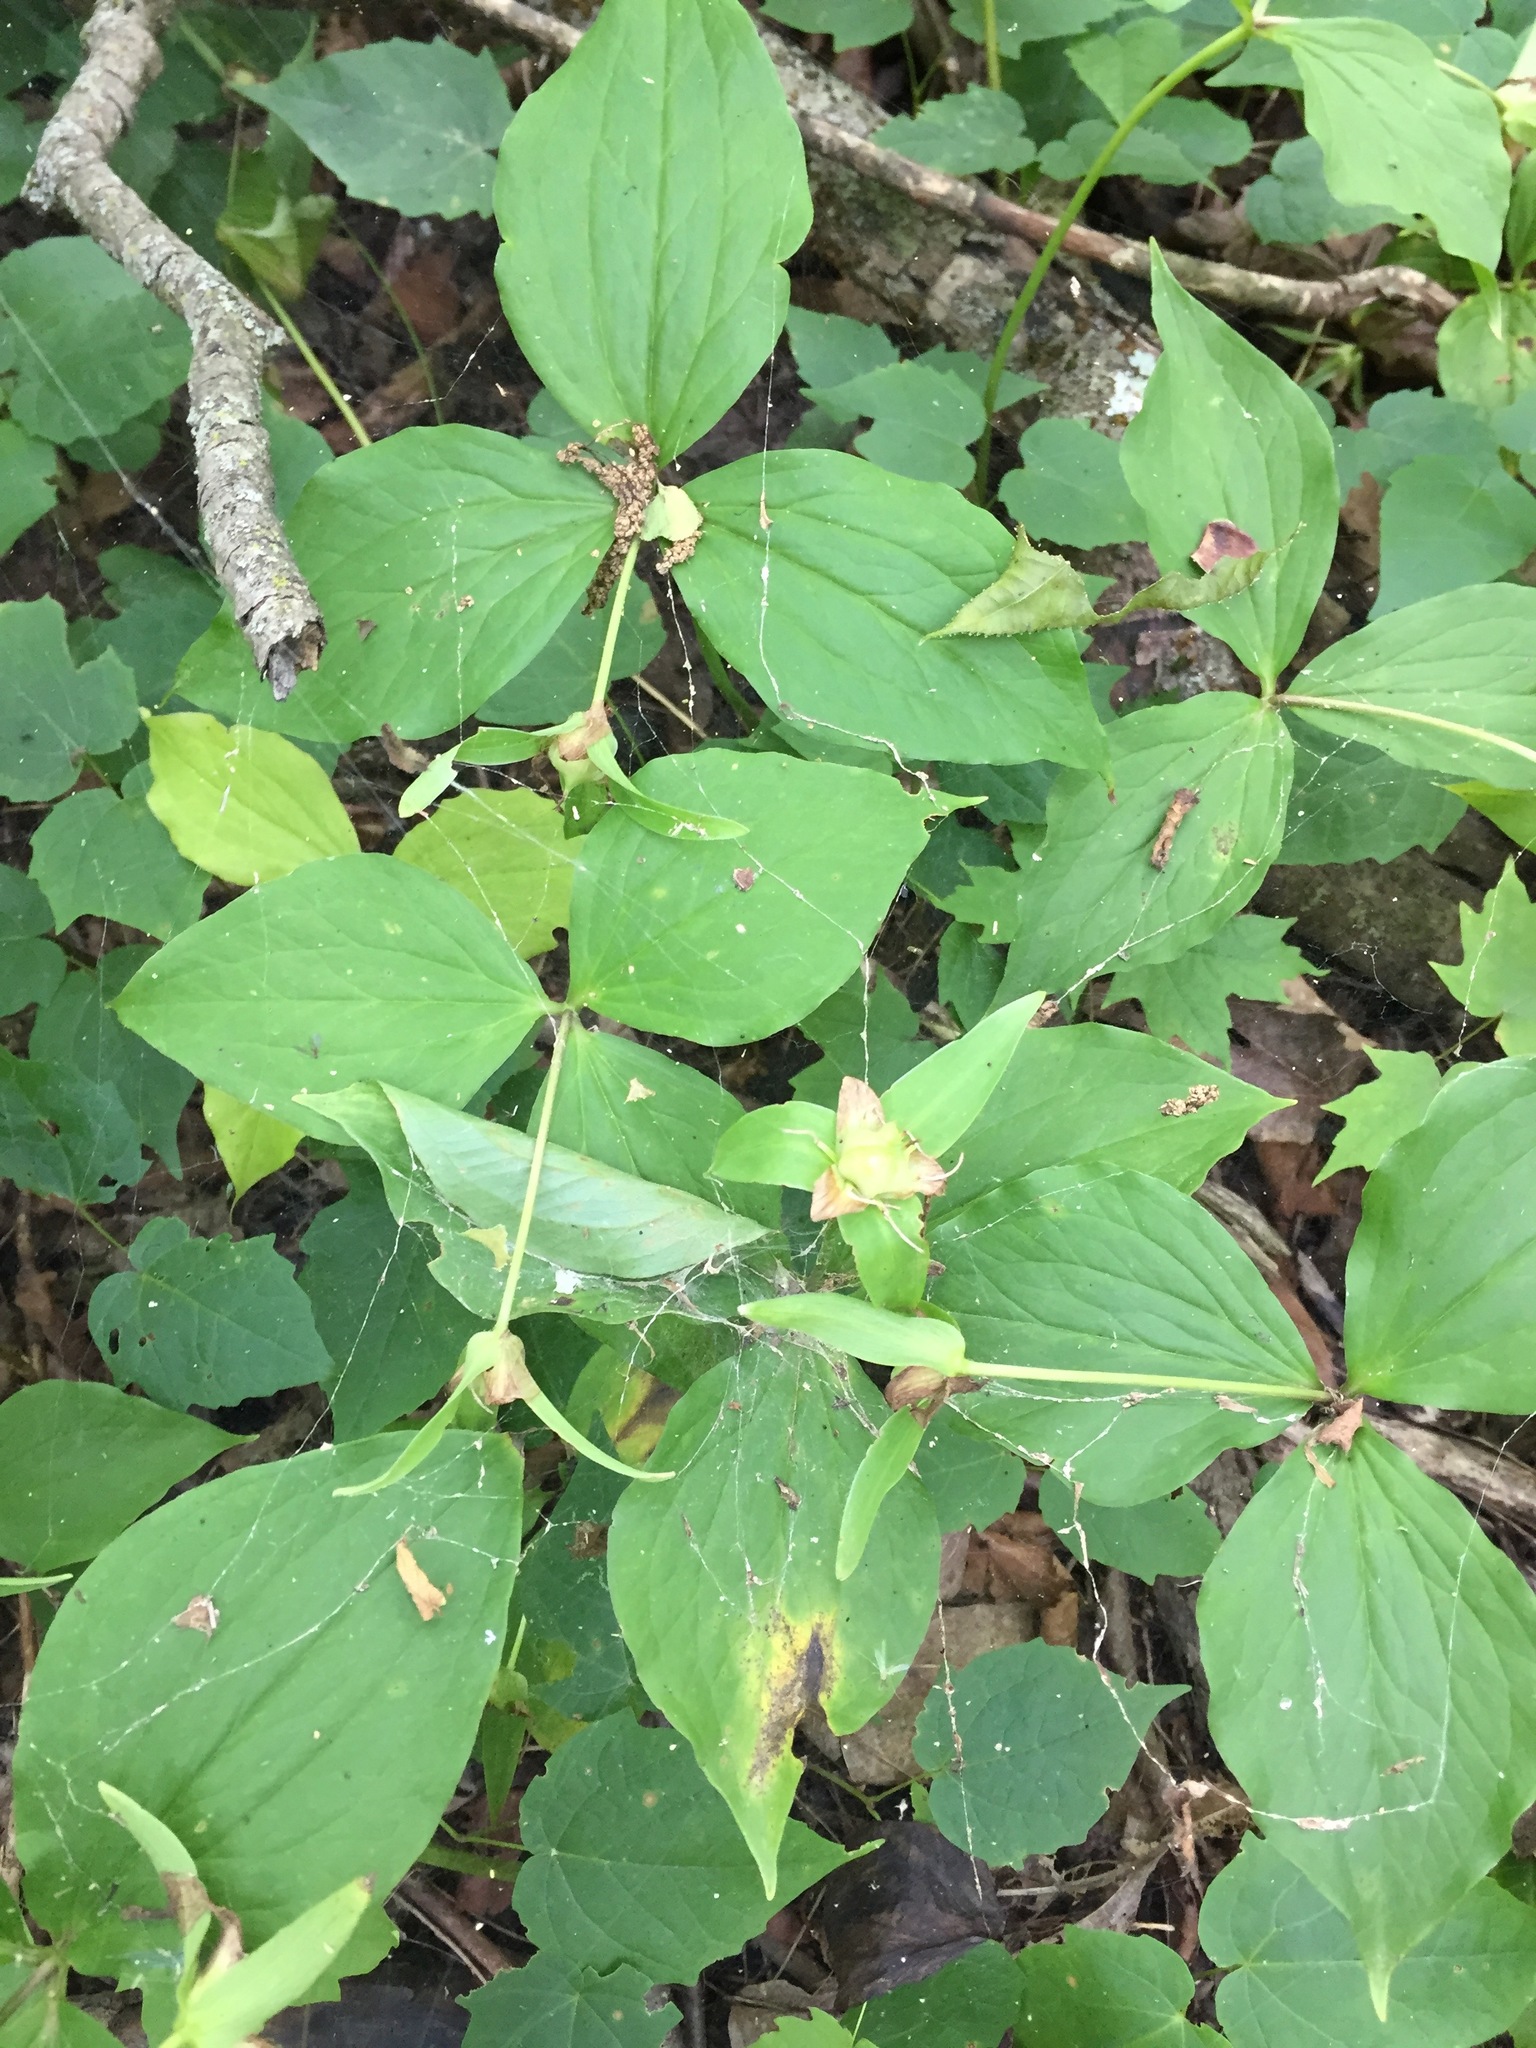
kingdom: Plantae
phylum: Tracheophyta
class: Liliopsida
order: Liliales
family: Melanthiaceae
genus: Trillium
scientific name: Trillium grandiflorum
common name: Great white trillium
